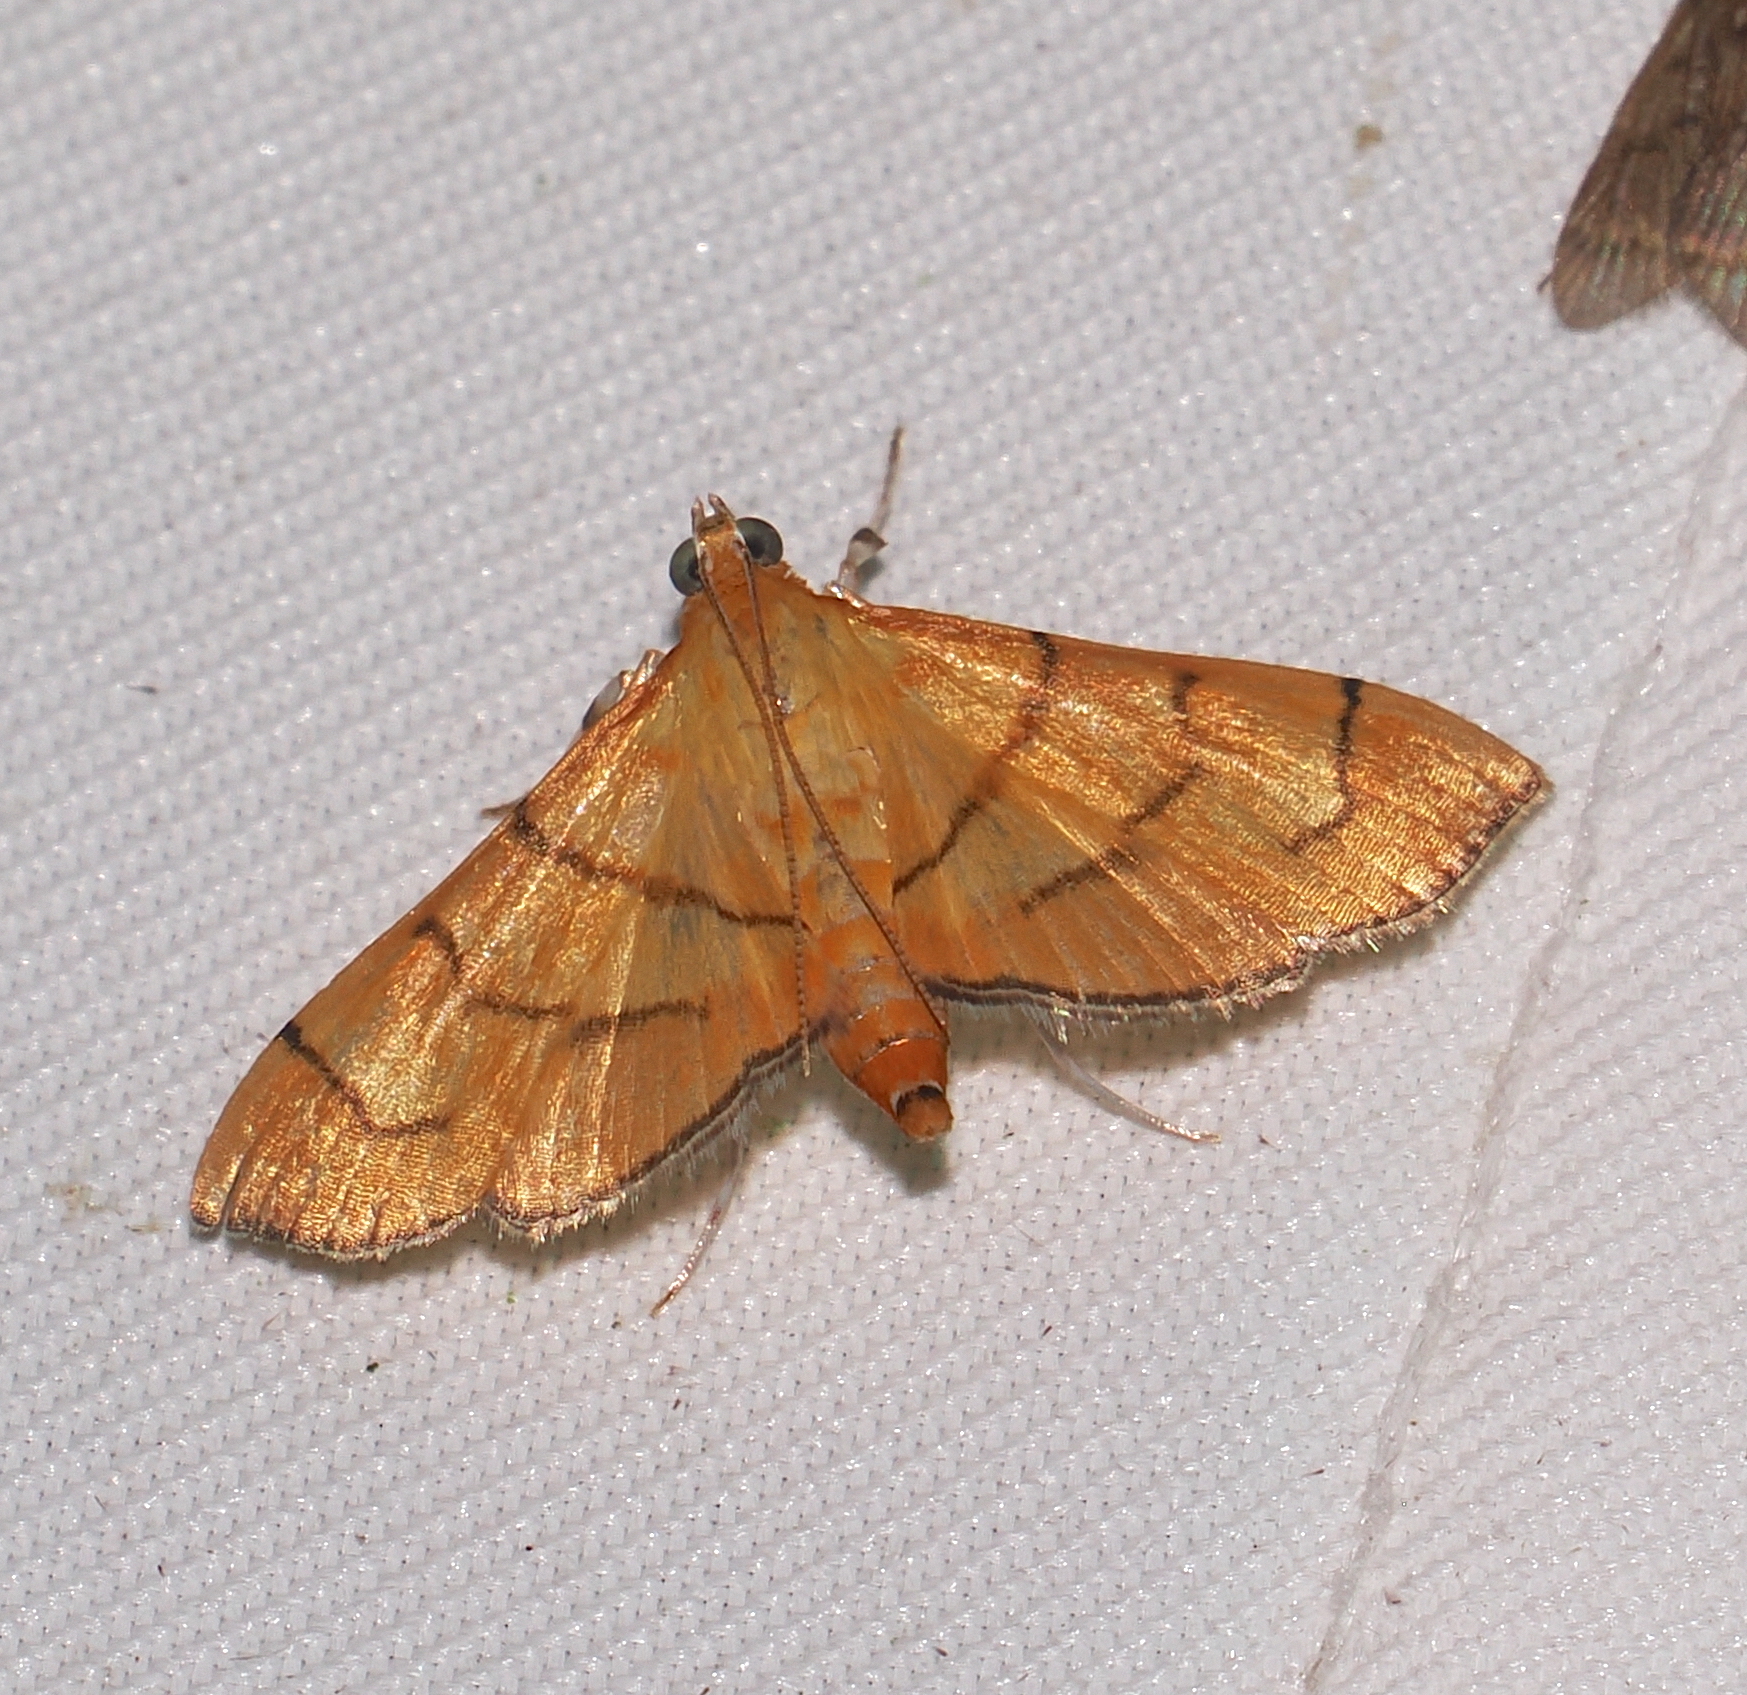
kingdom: Animalia
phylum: Arthropoda
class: Insecta
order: Lepidoptera
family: Crambidae
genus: Salbia
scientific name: Salbia haemorrhoidalis
